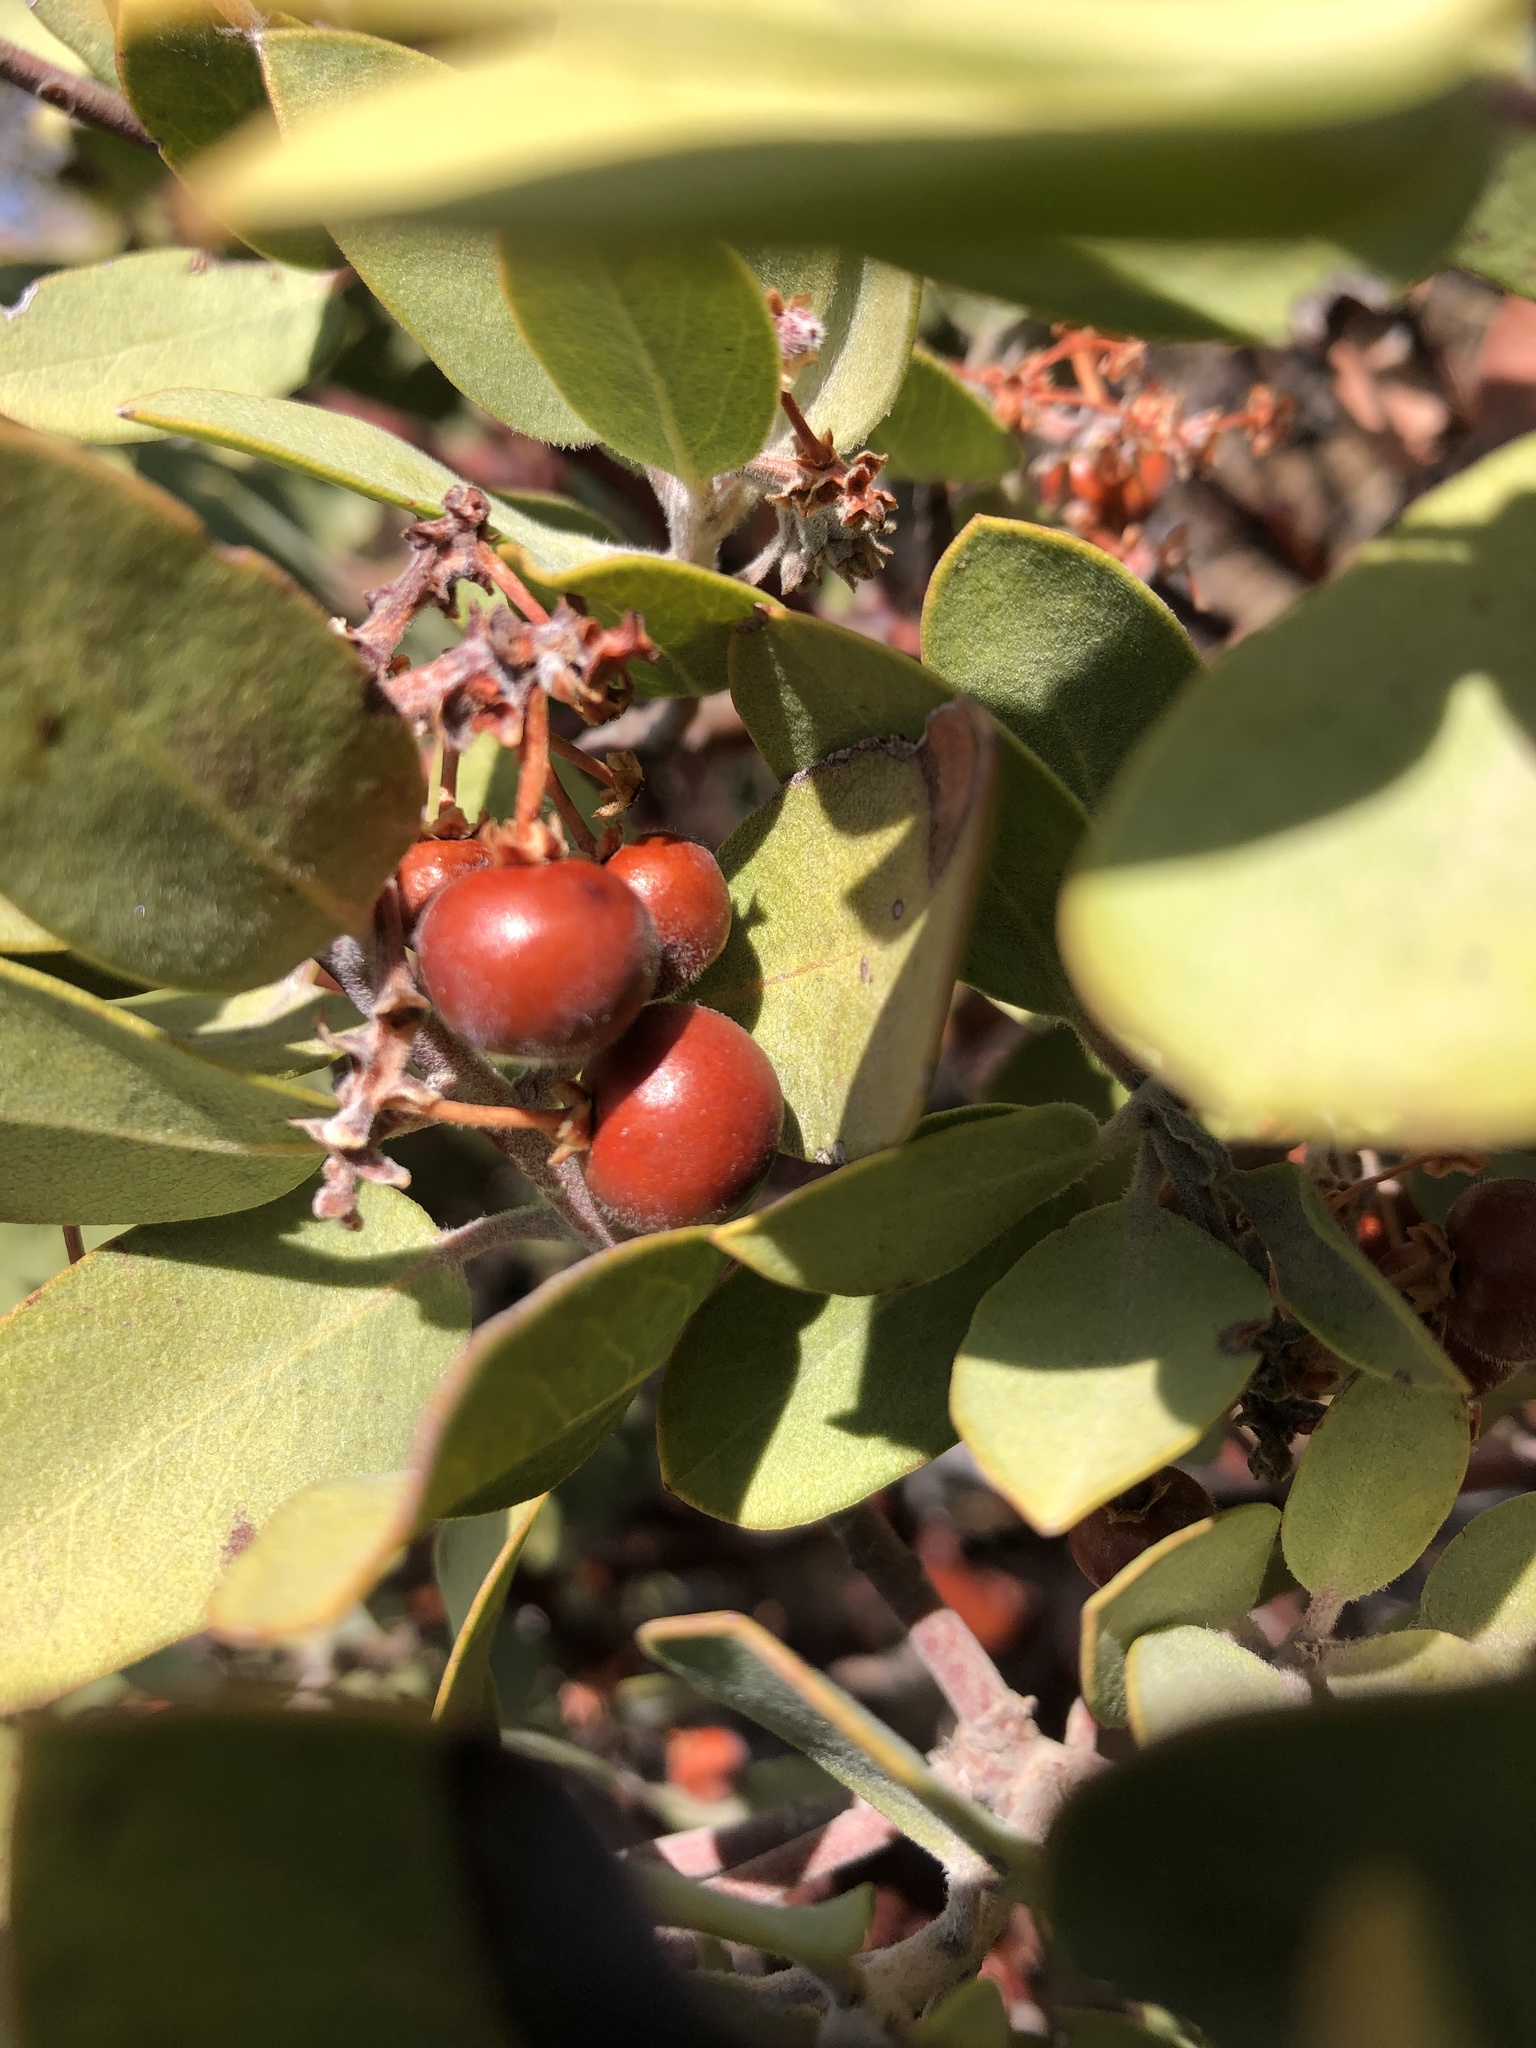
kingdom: Plantae
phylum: Tracheophyta
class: Magnoliopsida
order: Ericales
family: Ericaceae
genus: Arctostaphylos
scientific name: Arctostaphylos glandulosa
